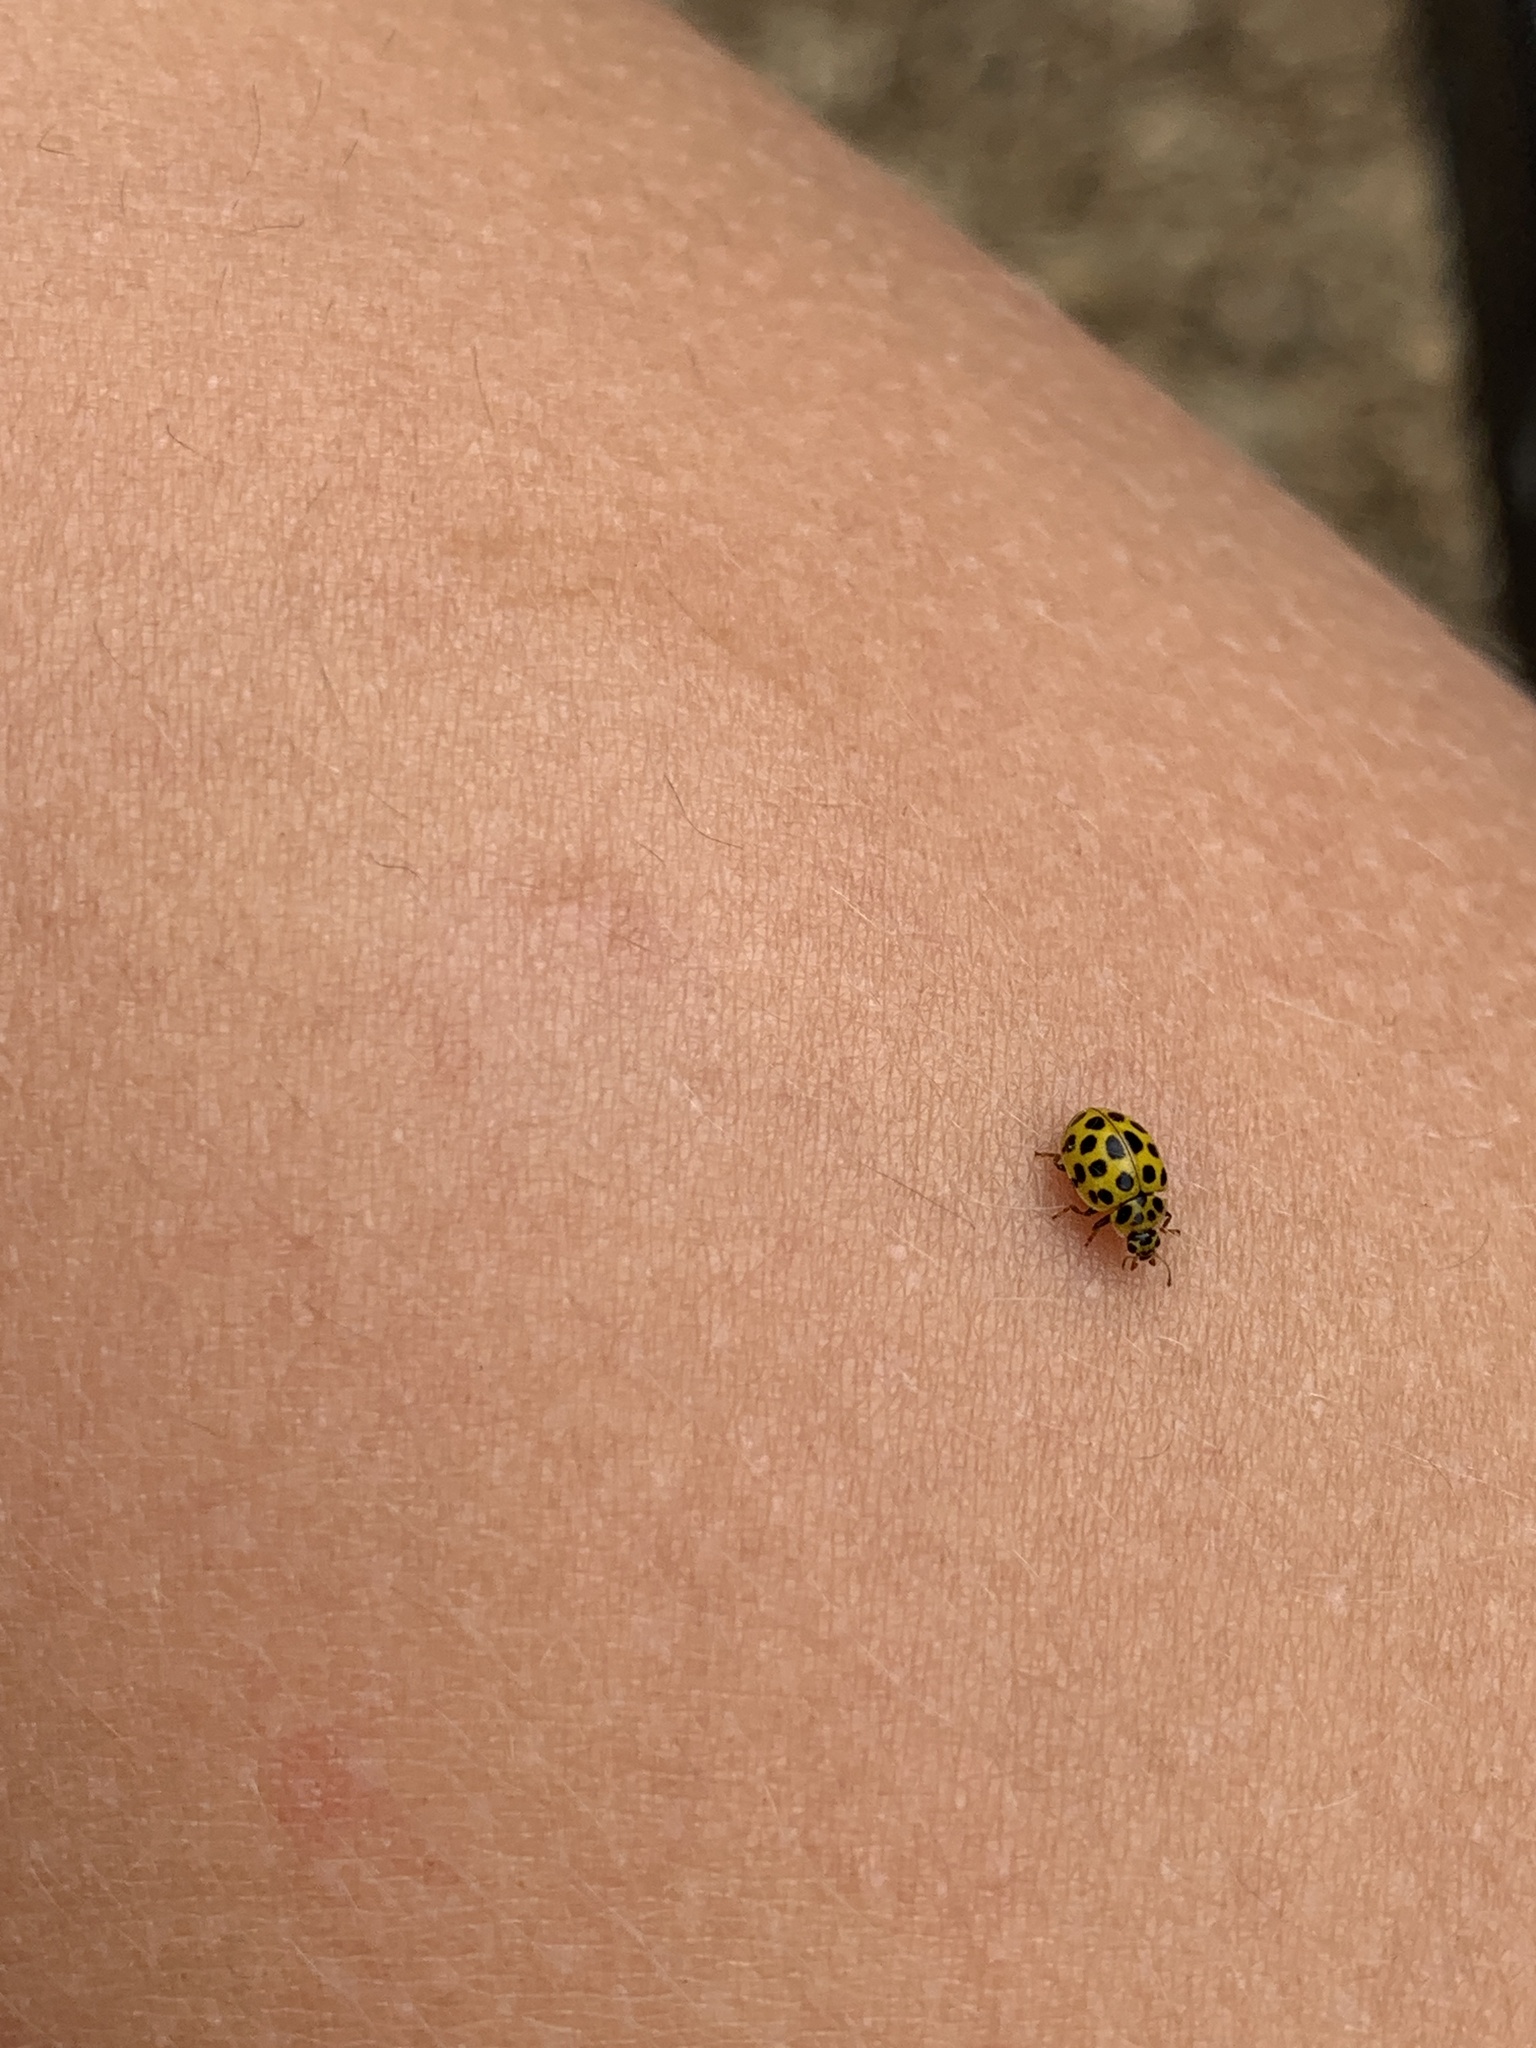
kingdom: Animalia
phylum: Arthropoda
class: Insecta
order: Coleoptera
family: Coccinellidae
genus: Psyllobora
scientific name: Psyllobora vigintiduopunctata
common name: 22-spot ladybird
